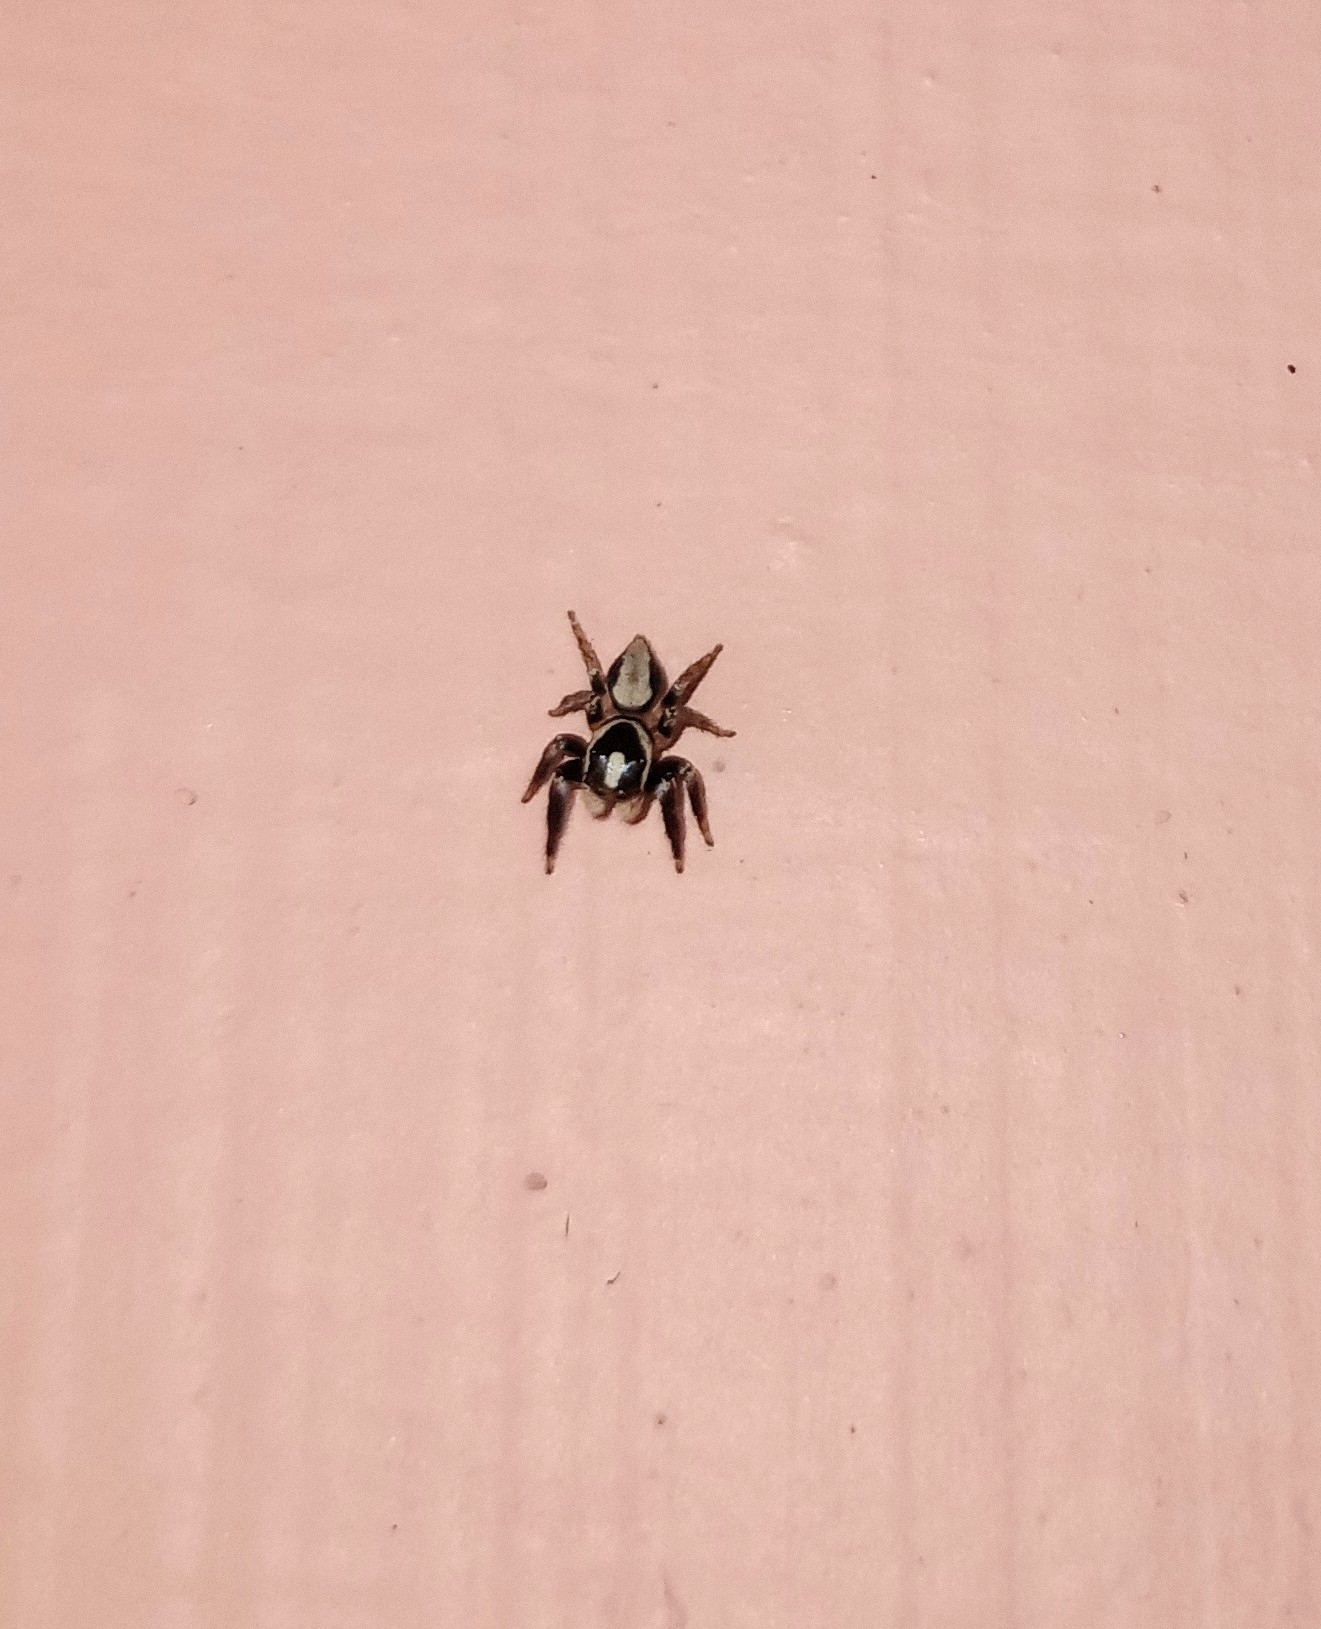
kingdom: Animalia
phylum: Arthropoda
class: Arachnida
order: Araneae
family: Salticidae
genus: Hyllus
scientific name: Hyllus manu
